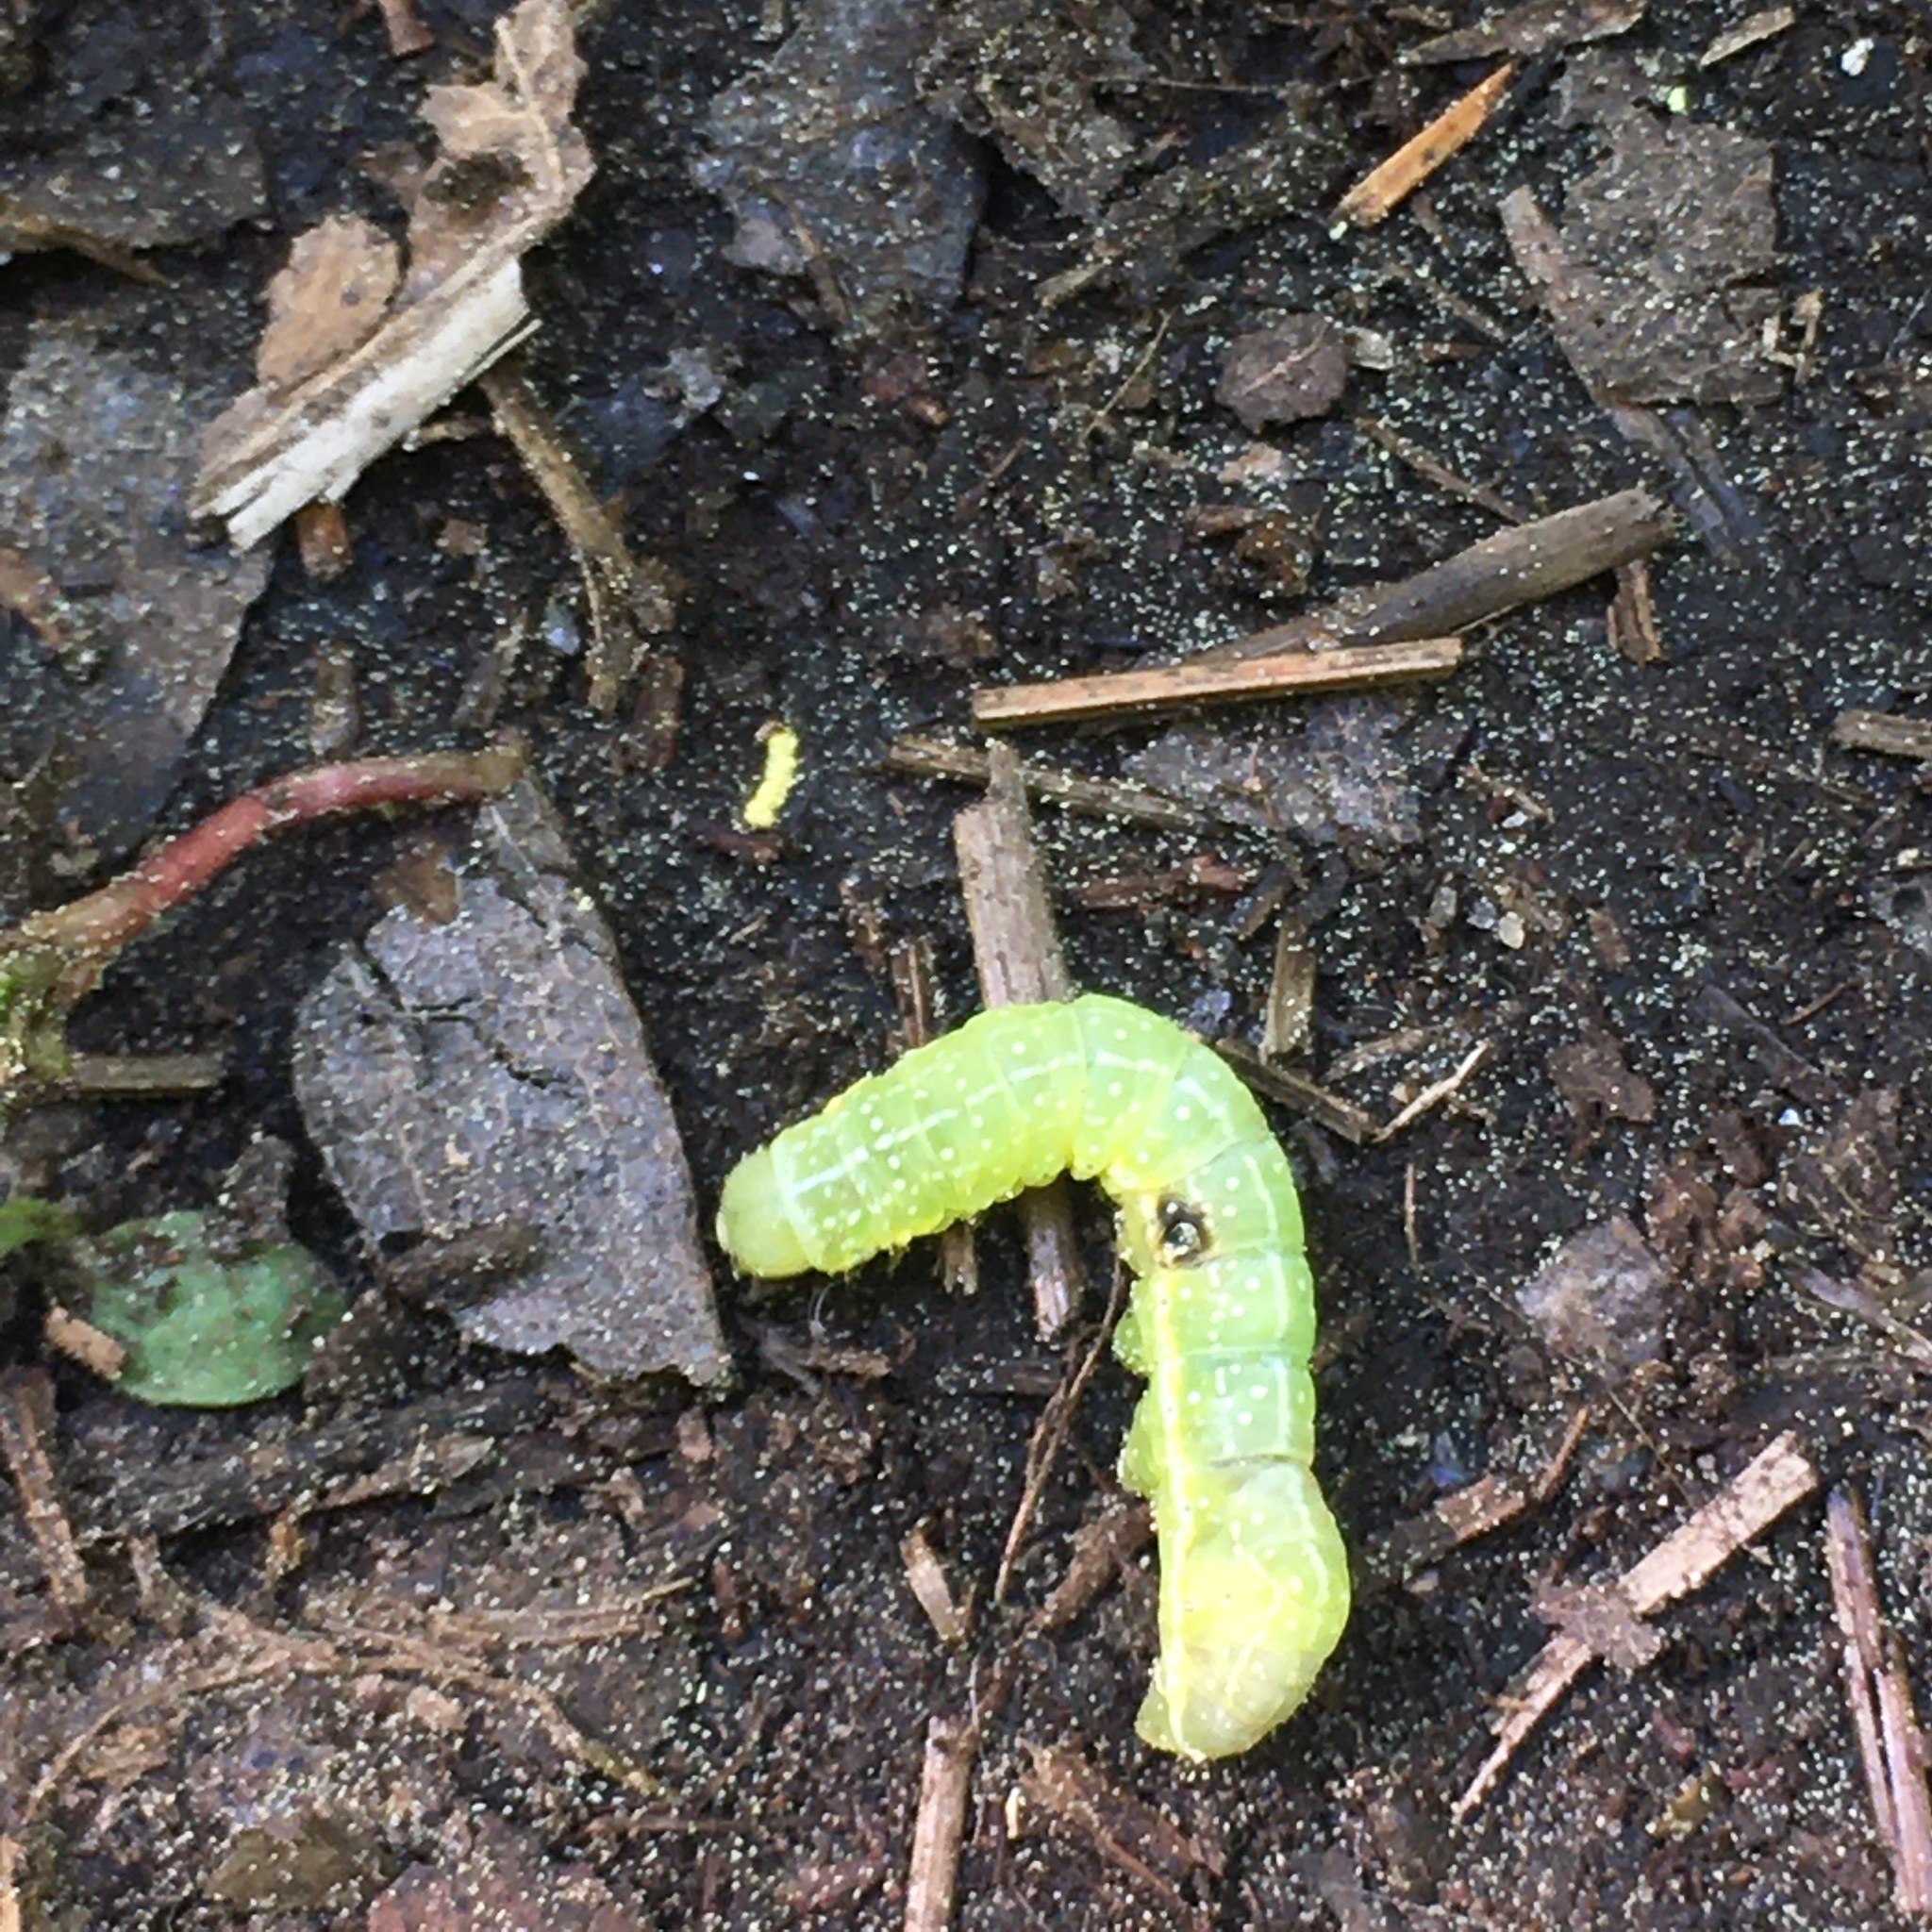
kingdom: Animalia
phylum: Arthropoda
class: Insecta
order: Lepidoptera
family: Noctuidae
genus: Amphipyra
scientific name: Amphipyra pyramidoides
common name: American copper underwing
